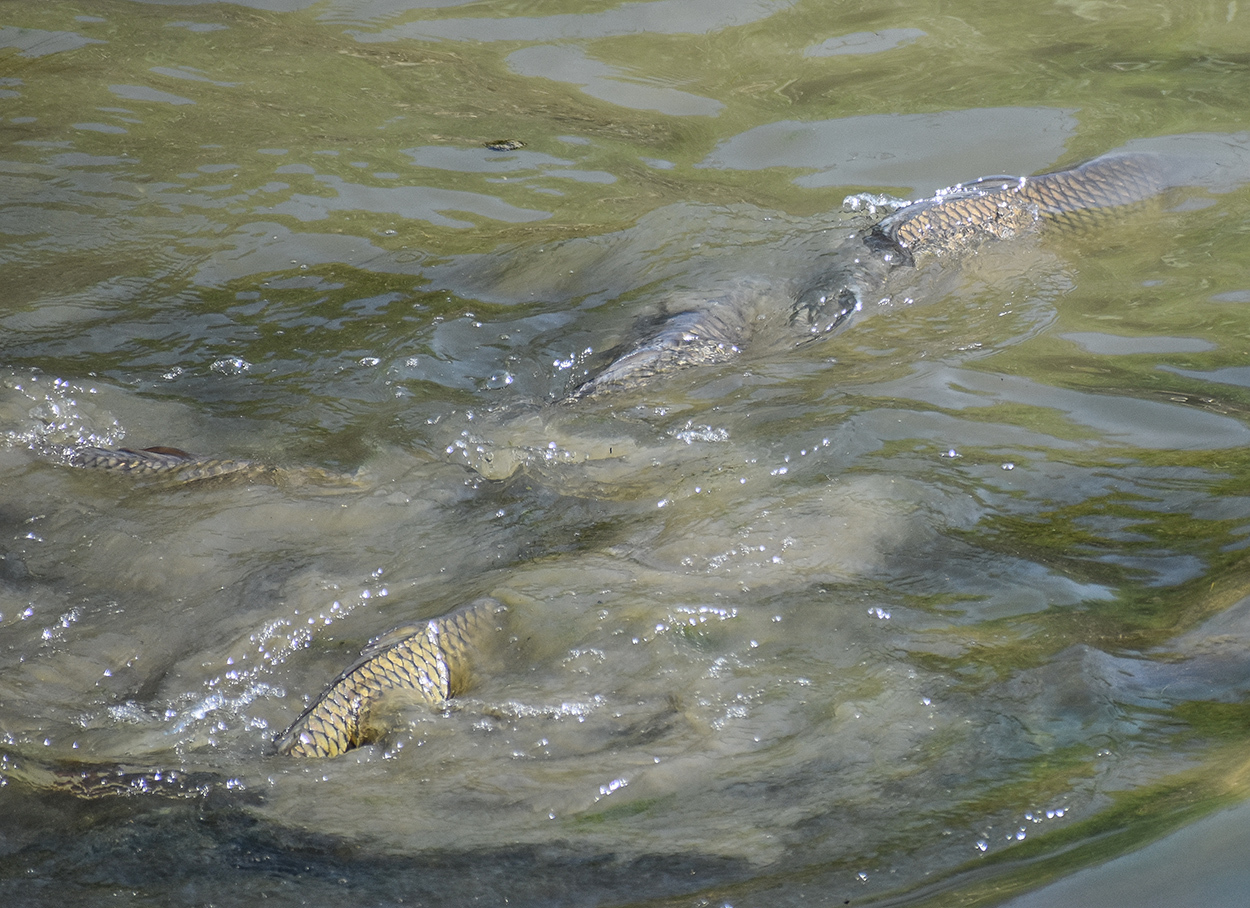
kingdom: Animalia
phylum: Chordata
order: Cypriniformes
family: Cyprinidae
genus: Cyprinus
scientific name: Cyprinus carpio
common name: Common carp
